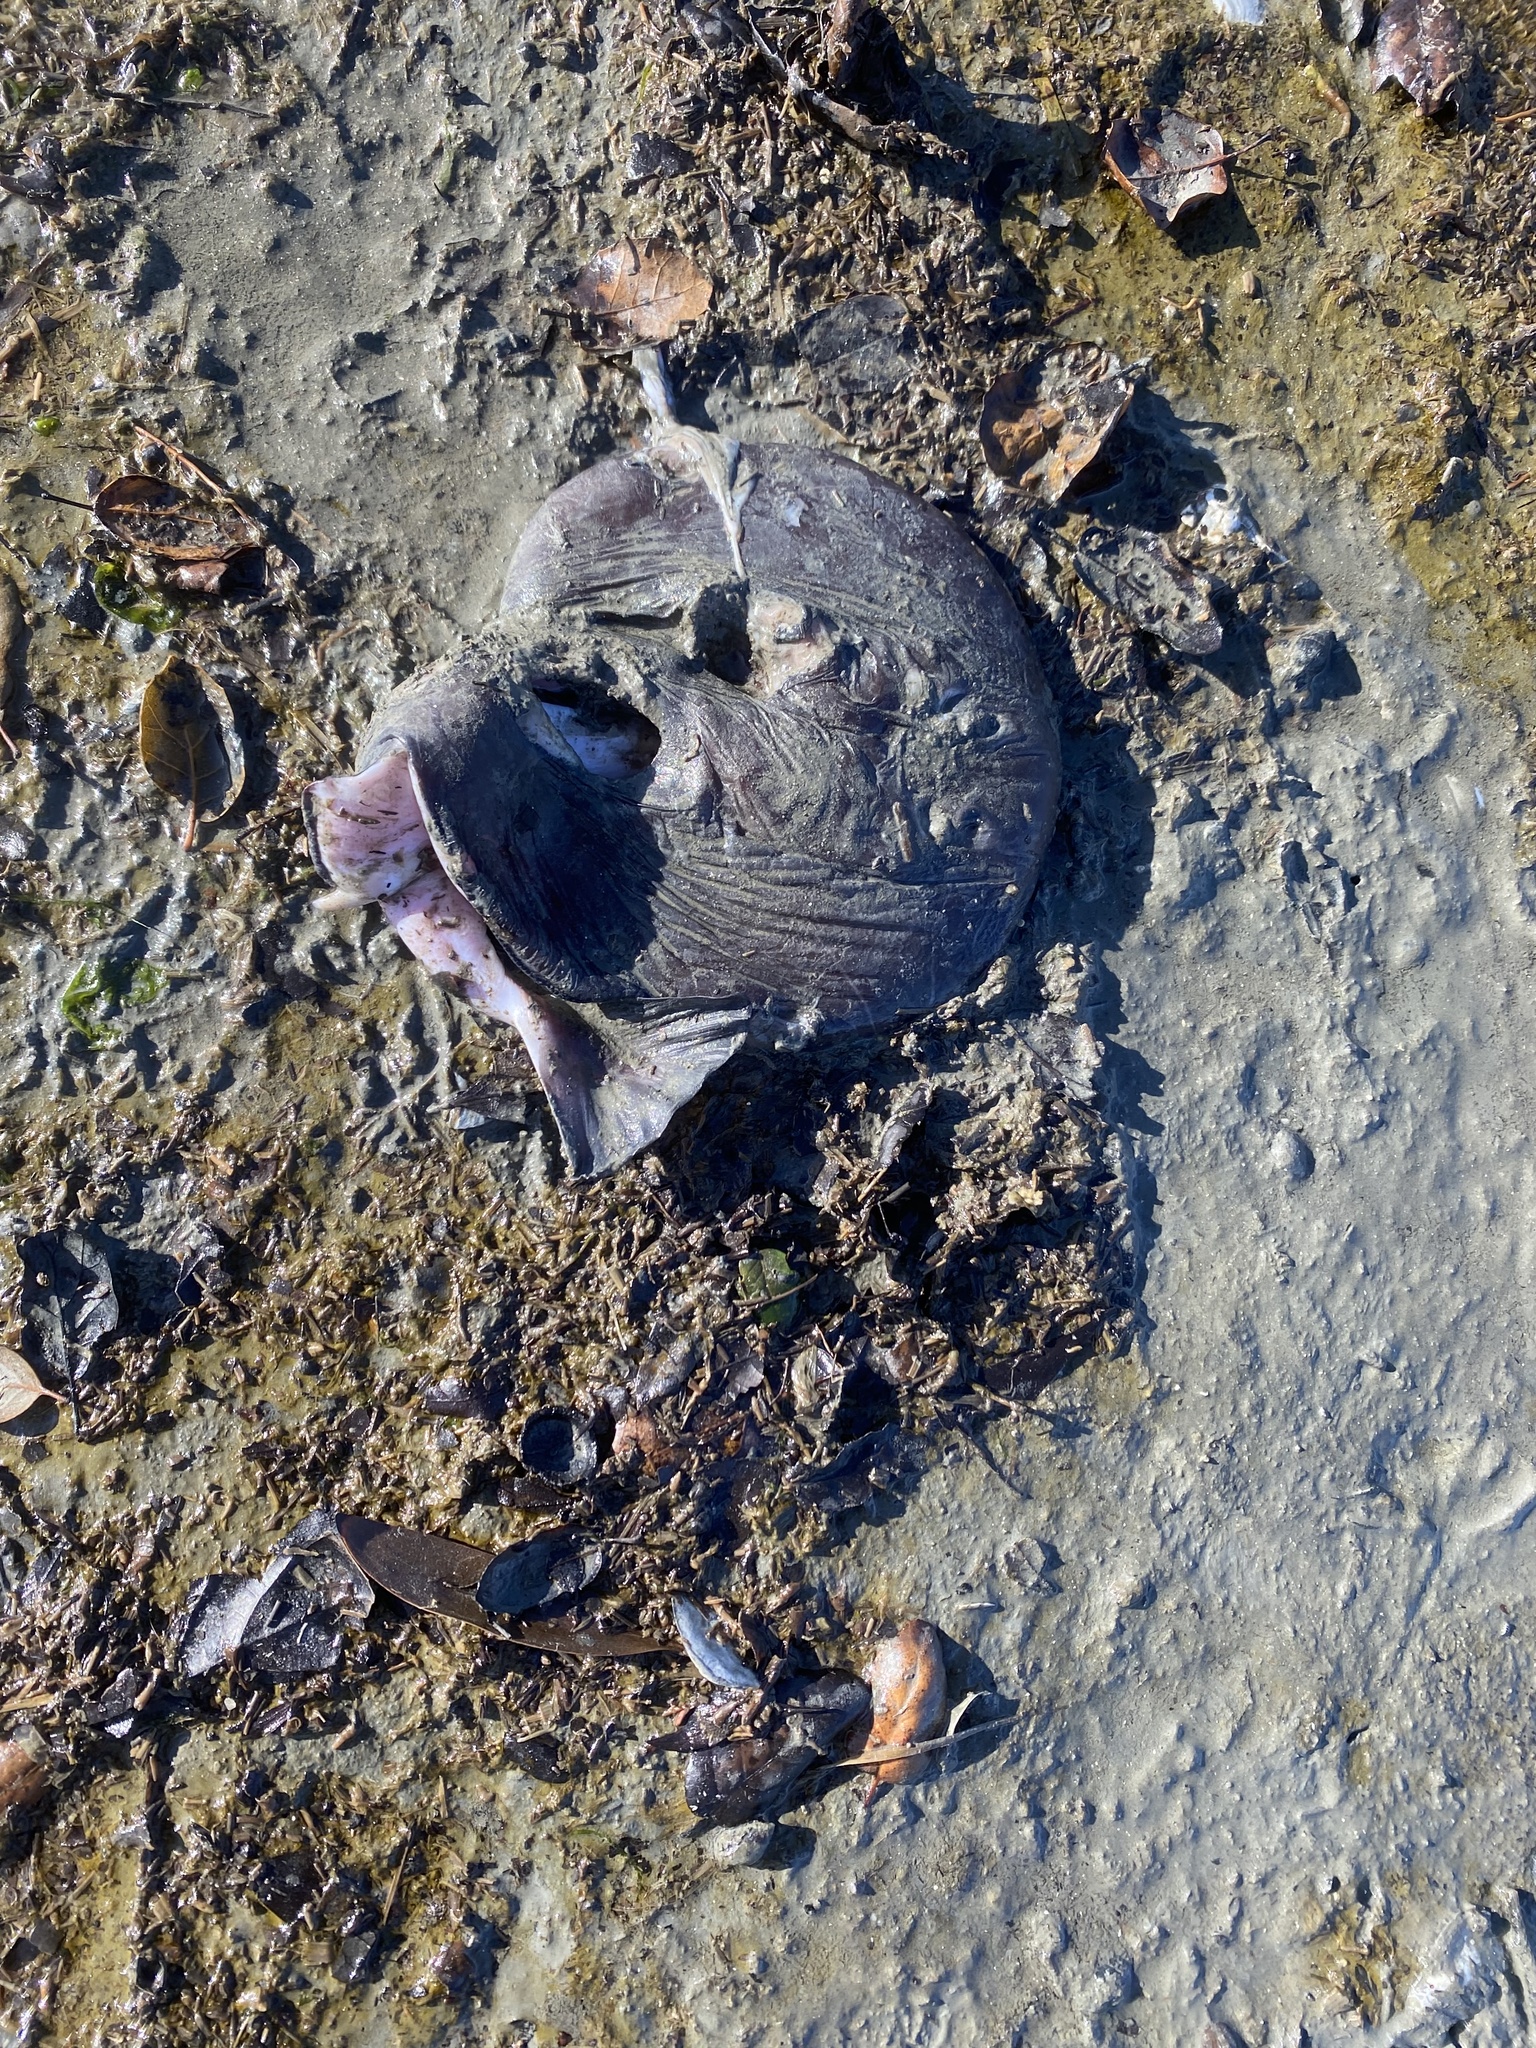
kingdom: Animalia
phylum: Chordata
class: Elasmobranchii
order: Torpediniformes
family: Torpedinidae
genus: Tetronarce
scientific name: Tetronarce californica
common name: Pacific electric ray
